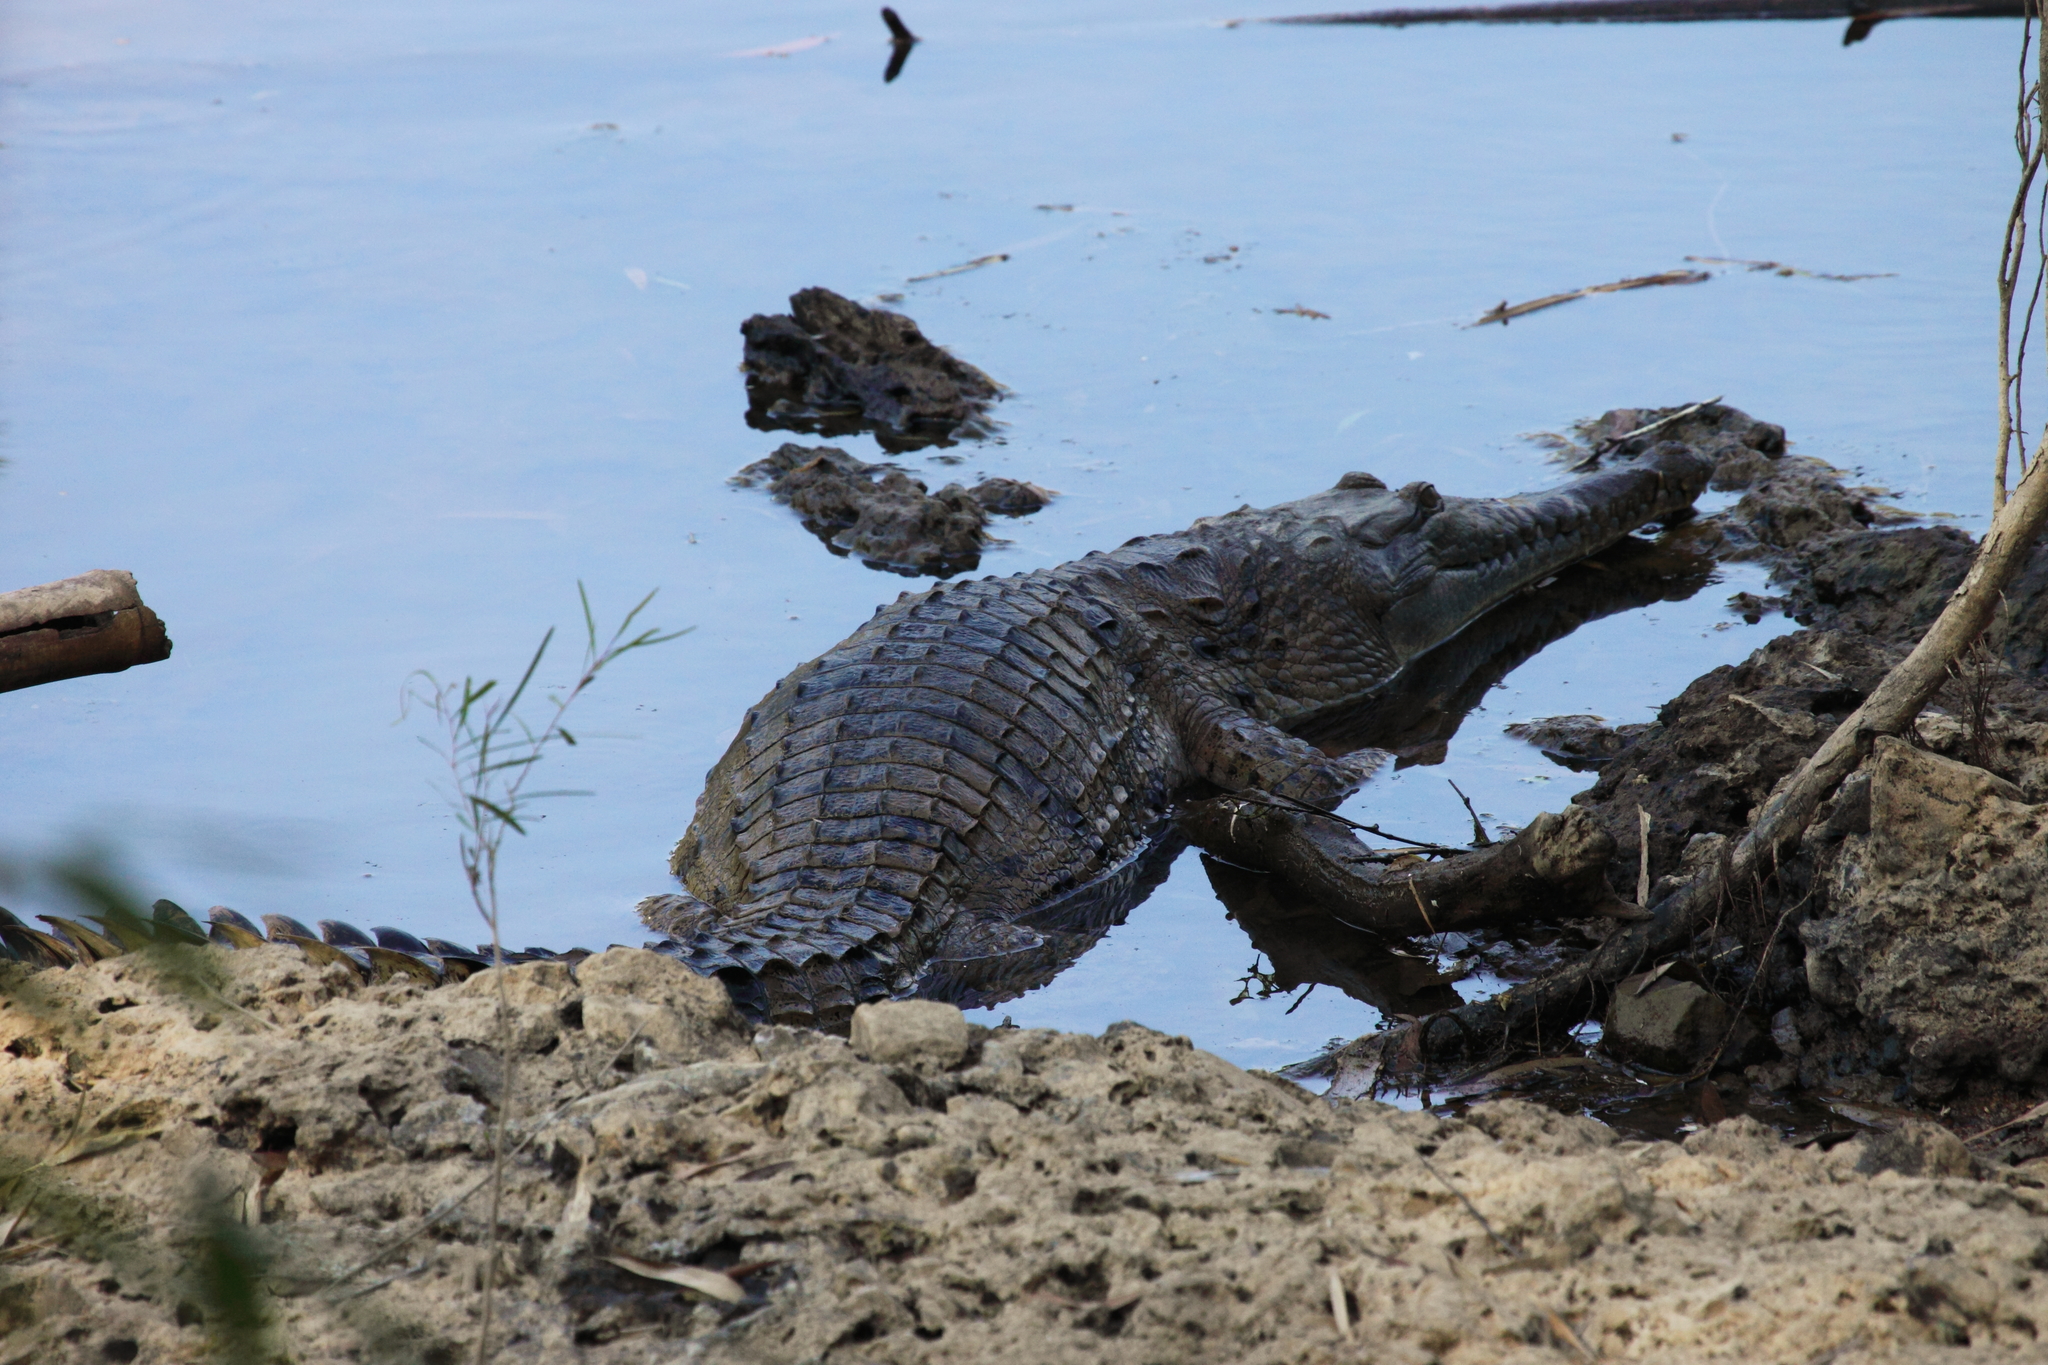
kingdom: Animalia
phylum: Chordata
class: Crocodylia
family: Crocodylidae
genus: Crocodylus
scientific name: Crocodylus johnsoni
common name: Freshwater crocodile
